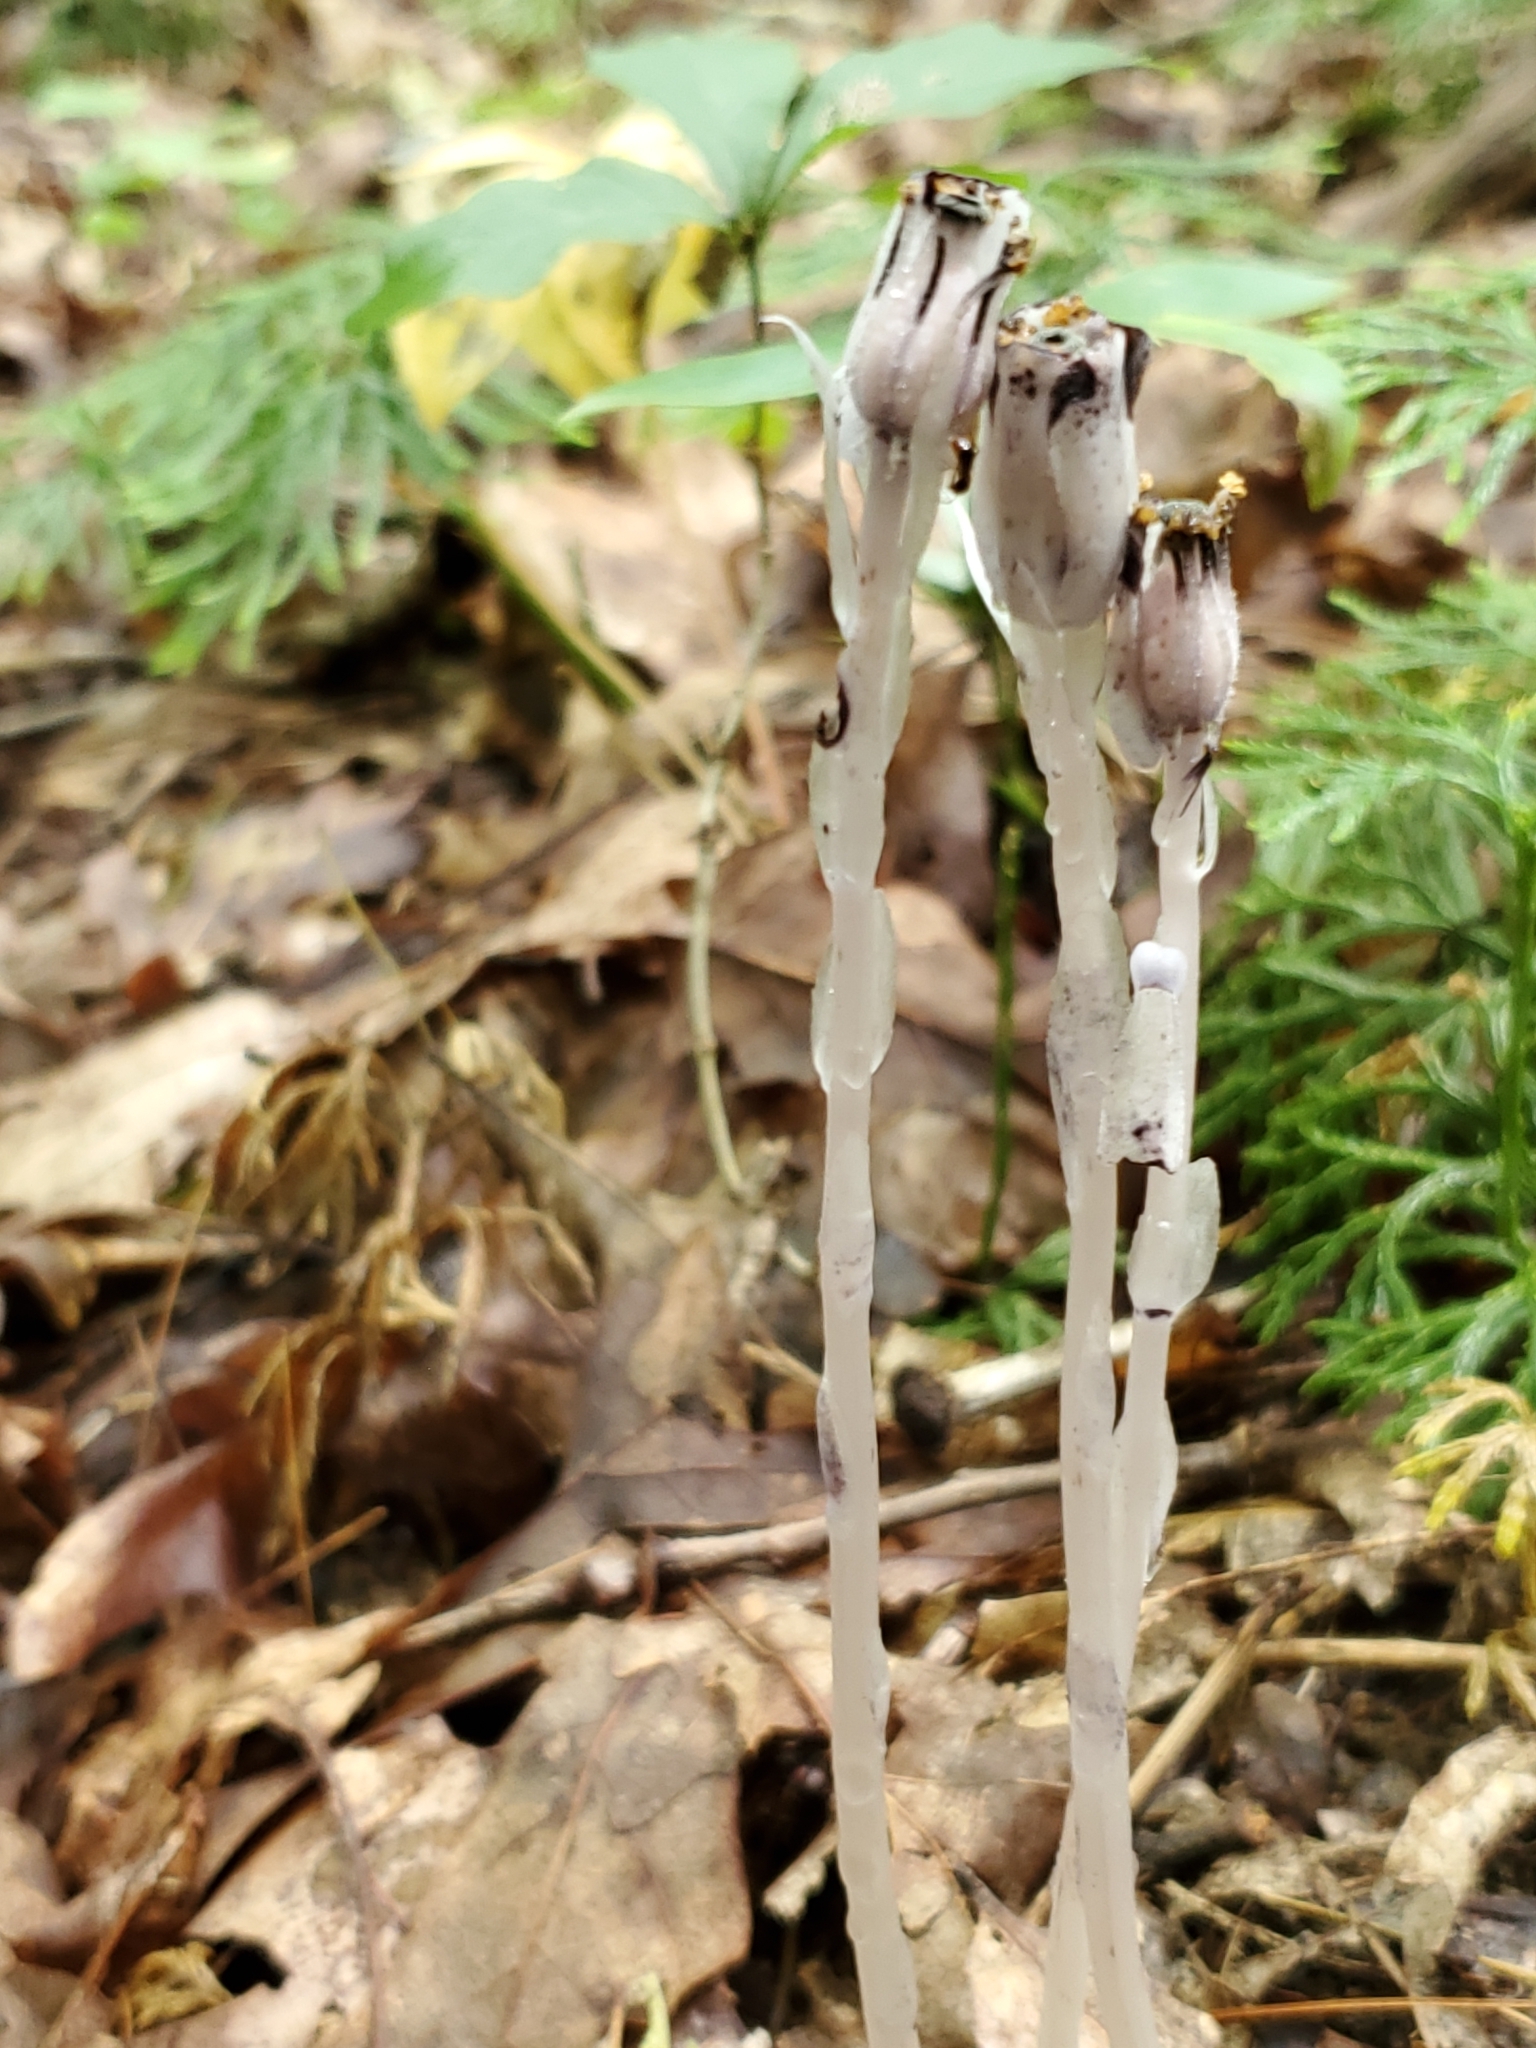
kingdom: Plantae
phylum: Tracheophyta
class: Magnoliopsida
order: Ericales
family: Ericaceae
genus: Monotropa
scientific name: Monotropa uniflora
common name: Convulsion root
